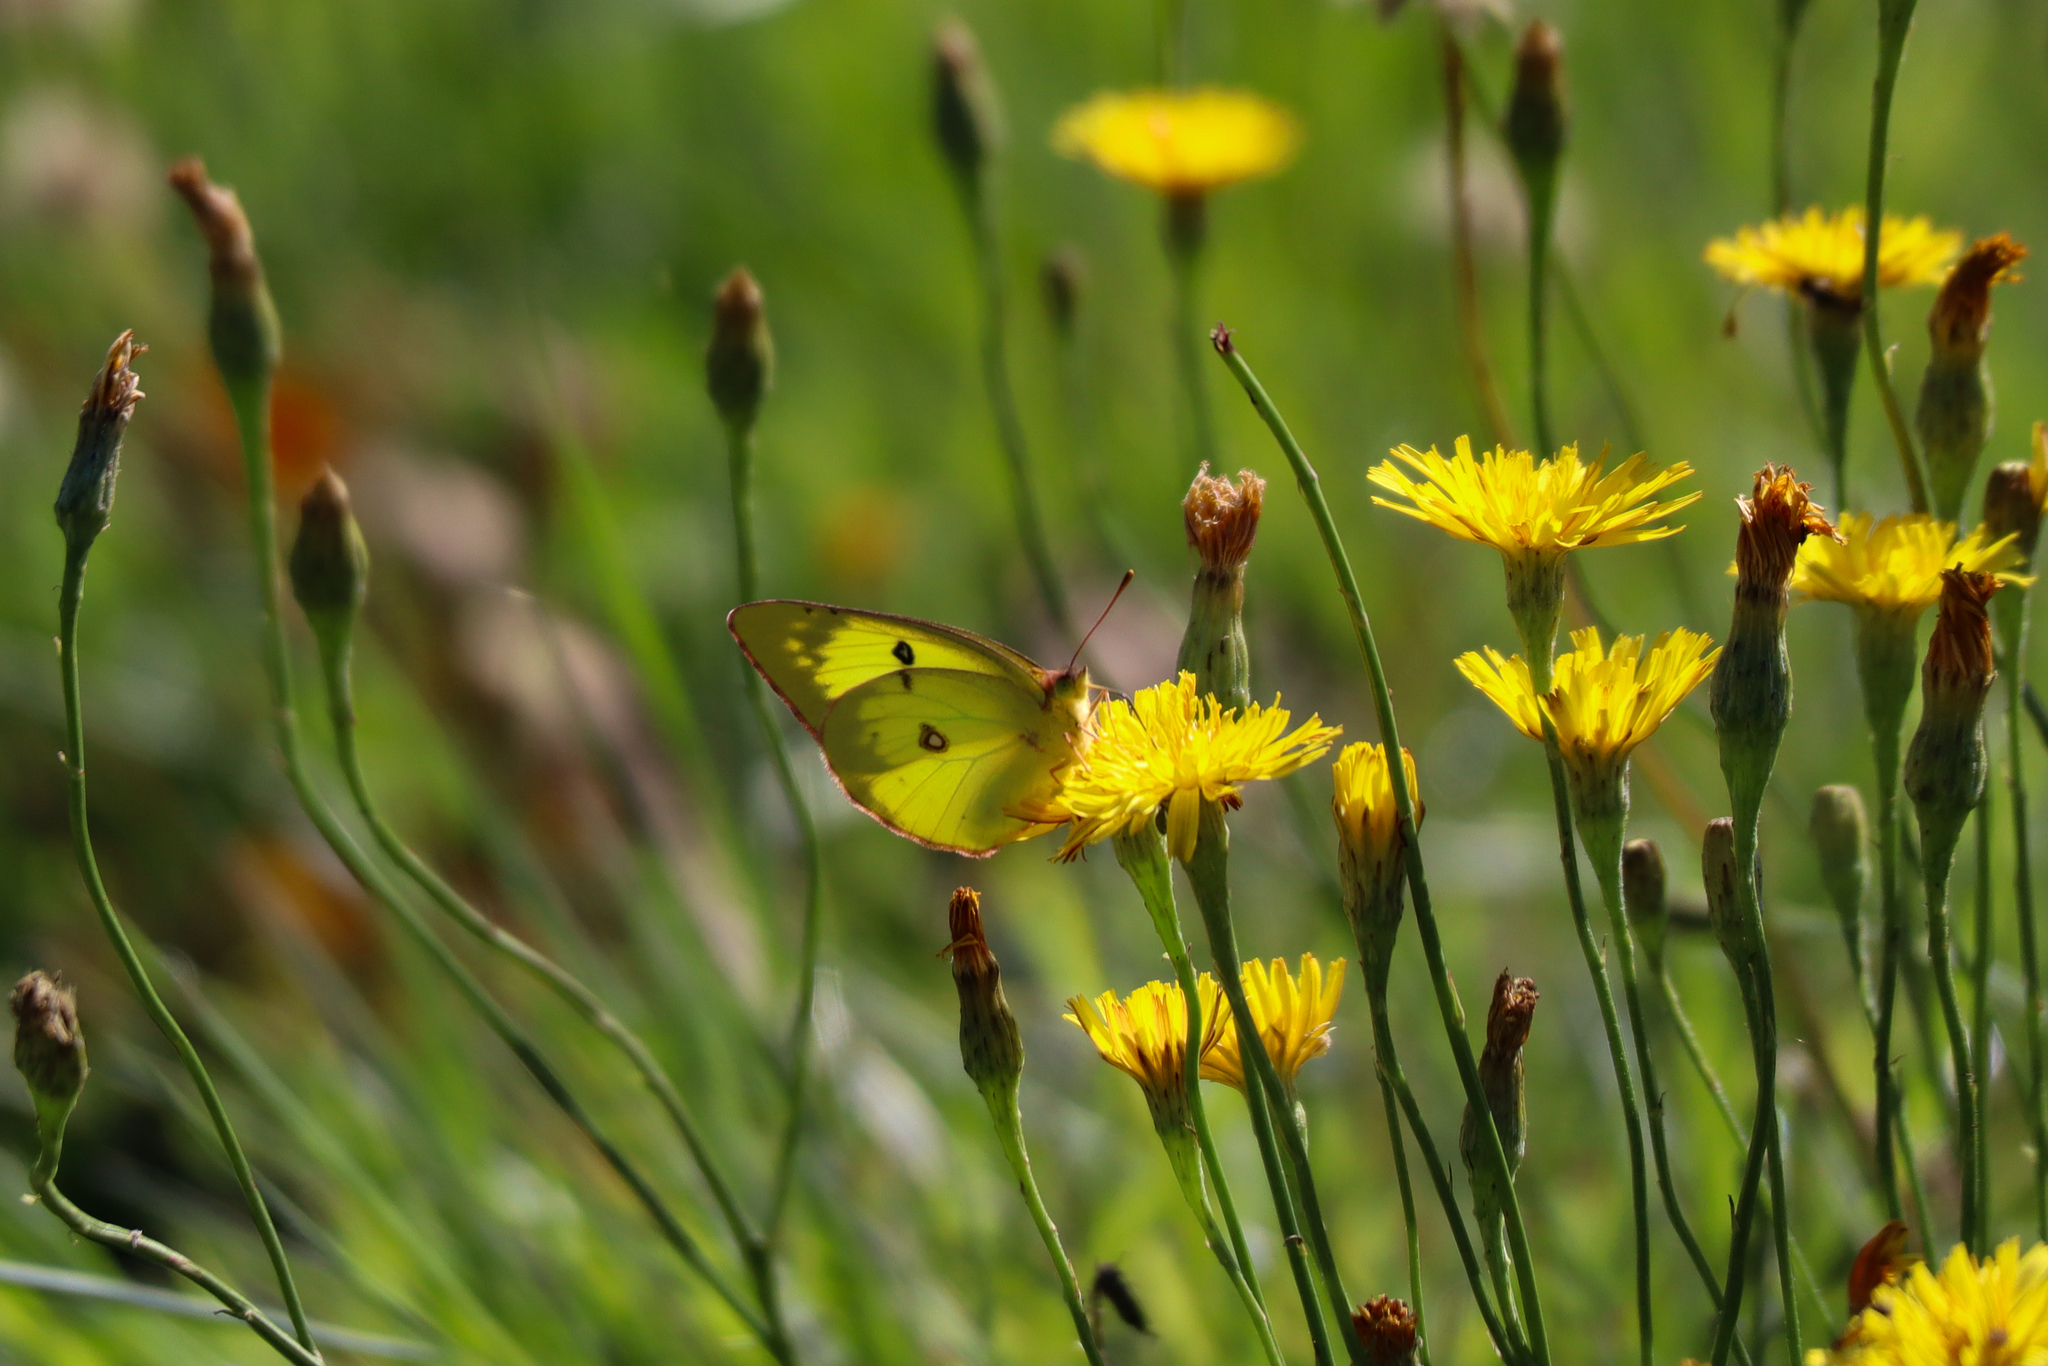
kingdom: Animalia
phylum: Arthropoda
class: Insecta
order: Lepidoptera
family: Pieridae
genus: Colias
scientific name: Colias philodice
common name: Clouded sulphur
